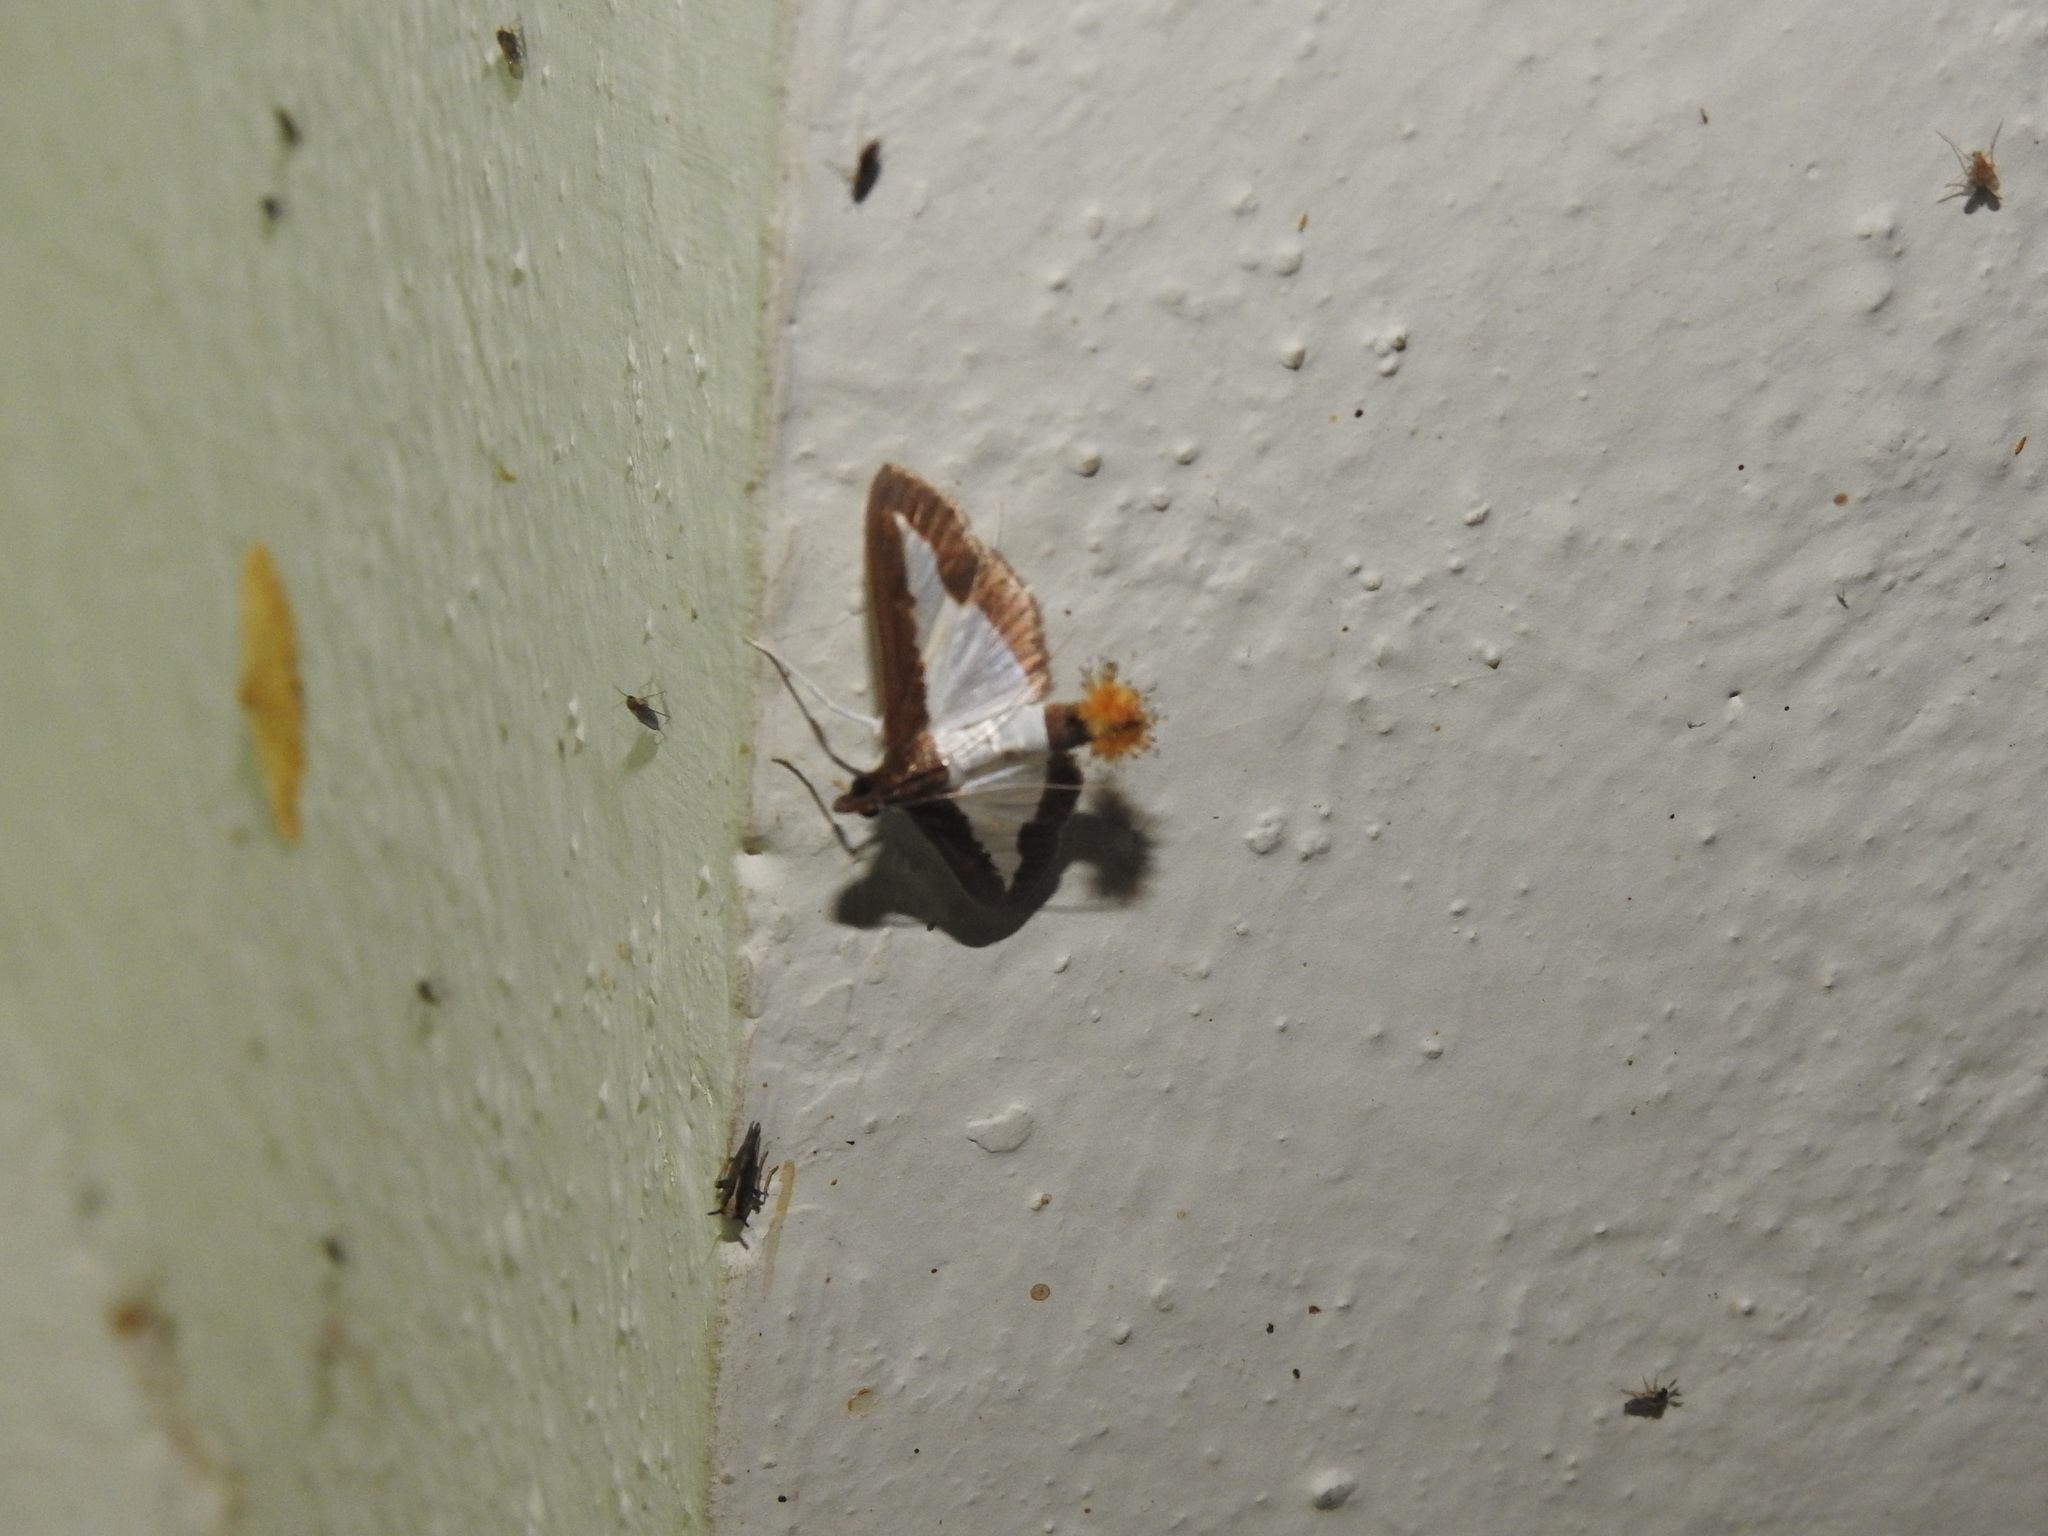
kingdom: Animalia
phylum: Arthropoda
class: Insecta
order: Lepidoptera
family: Crambidae
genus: Diaphania
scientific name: Diaphania indica
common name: Cucumber moth
